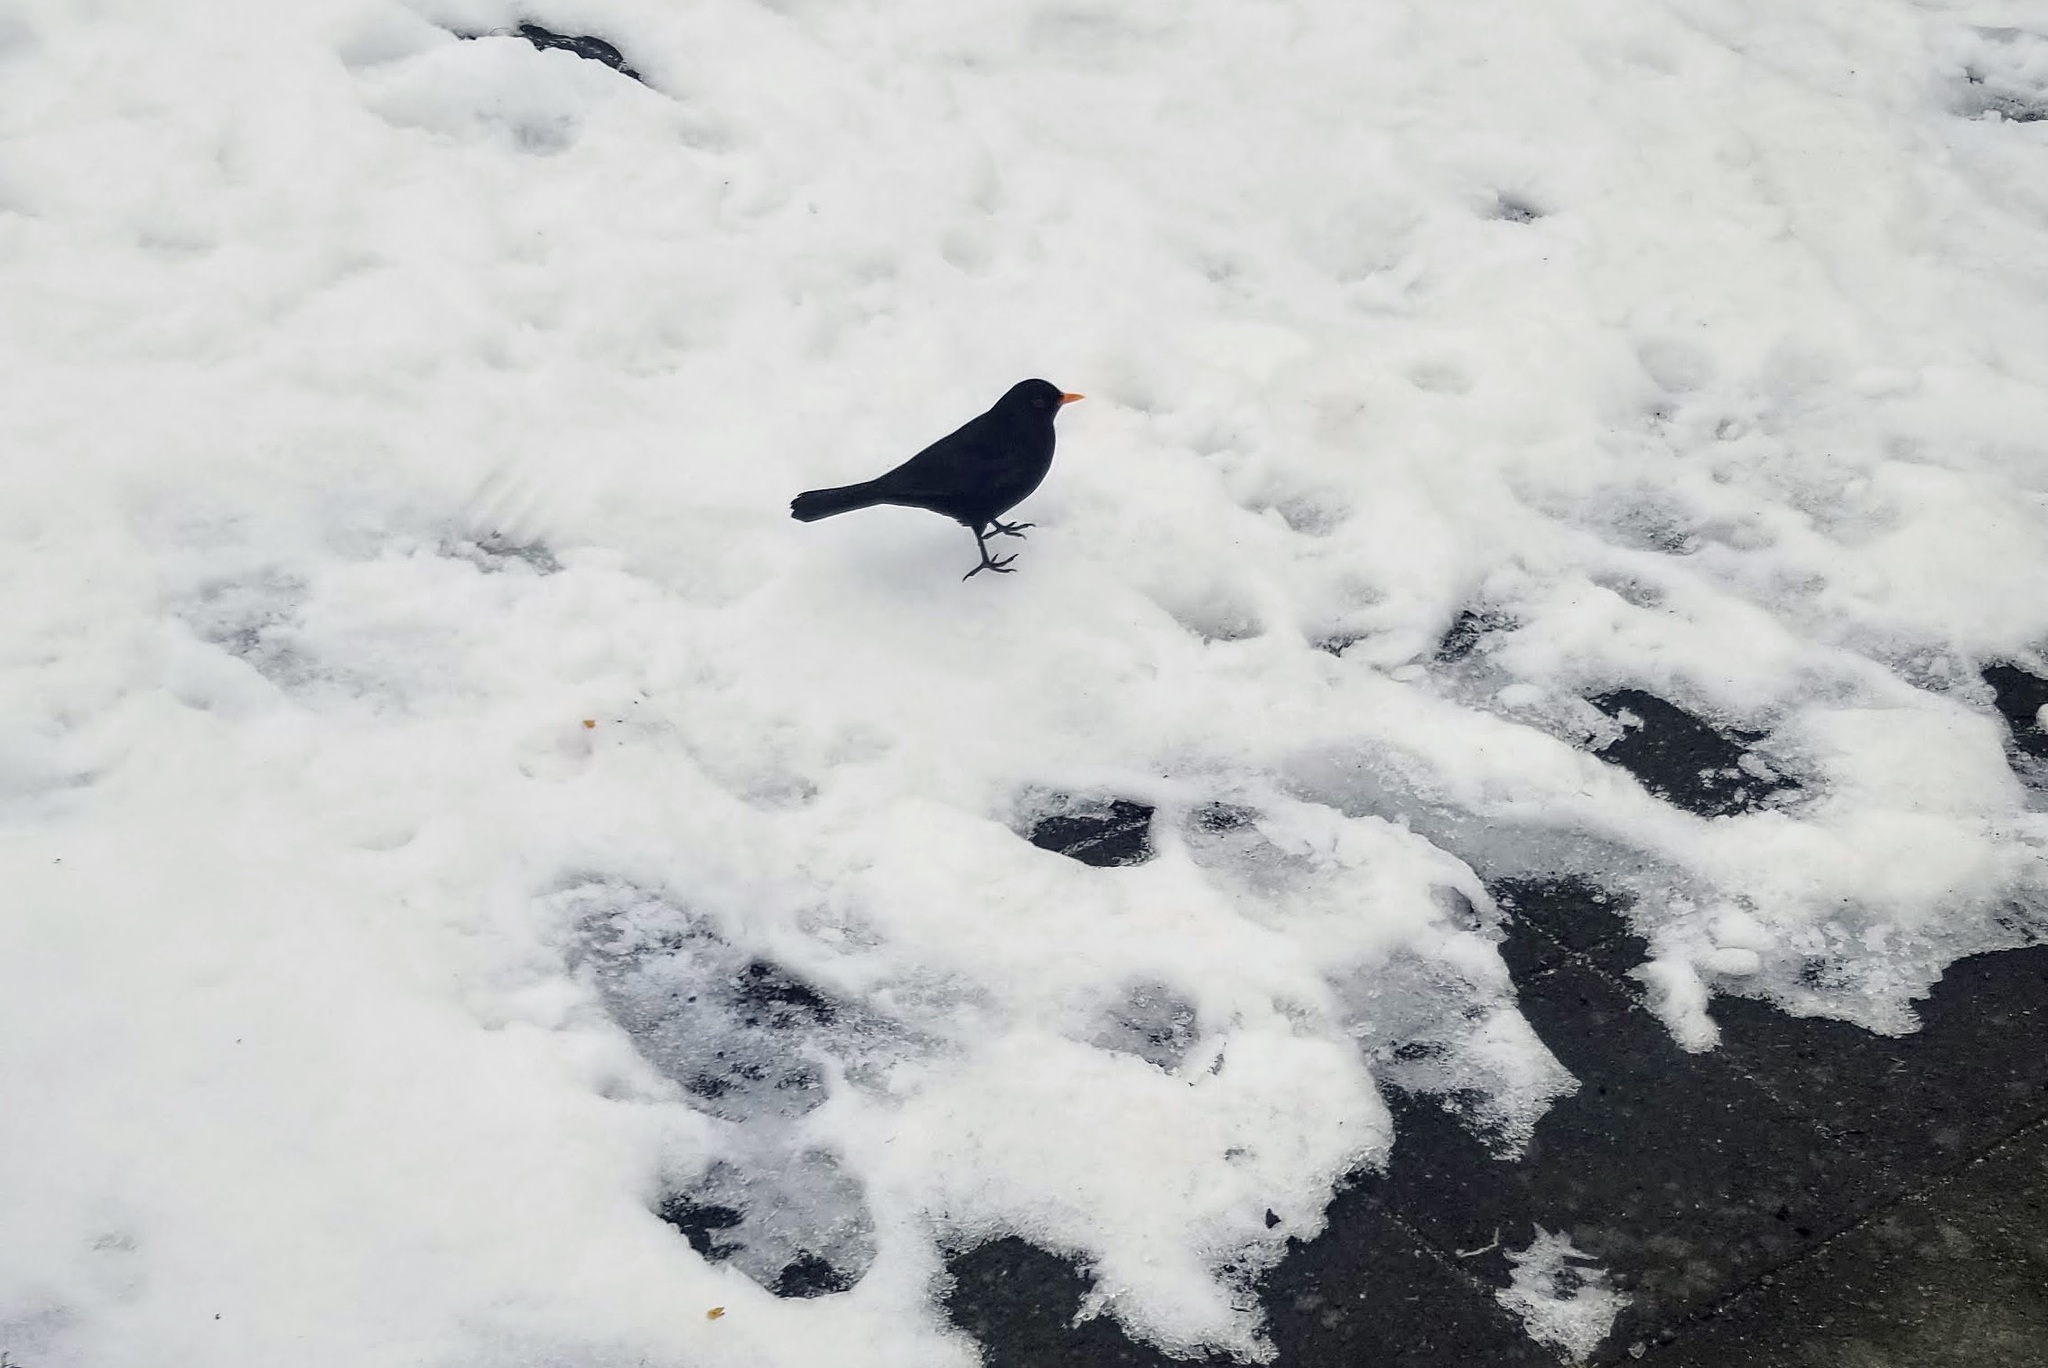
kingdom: Animalia
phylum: Chordata
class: Aves
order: Passeriformes
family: Turdidae
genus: Turdus
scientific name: Turdus merula
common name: Common blackbird
